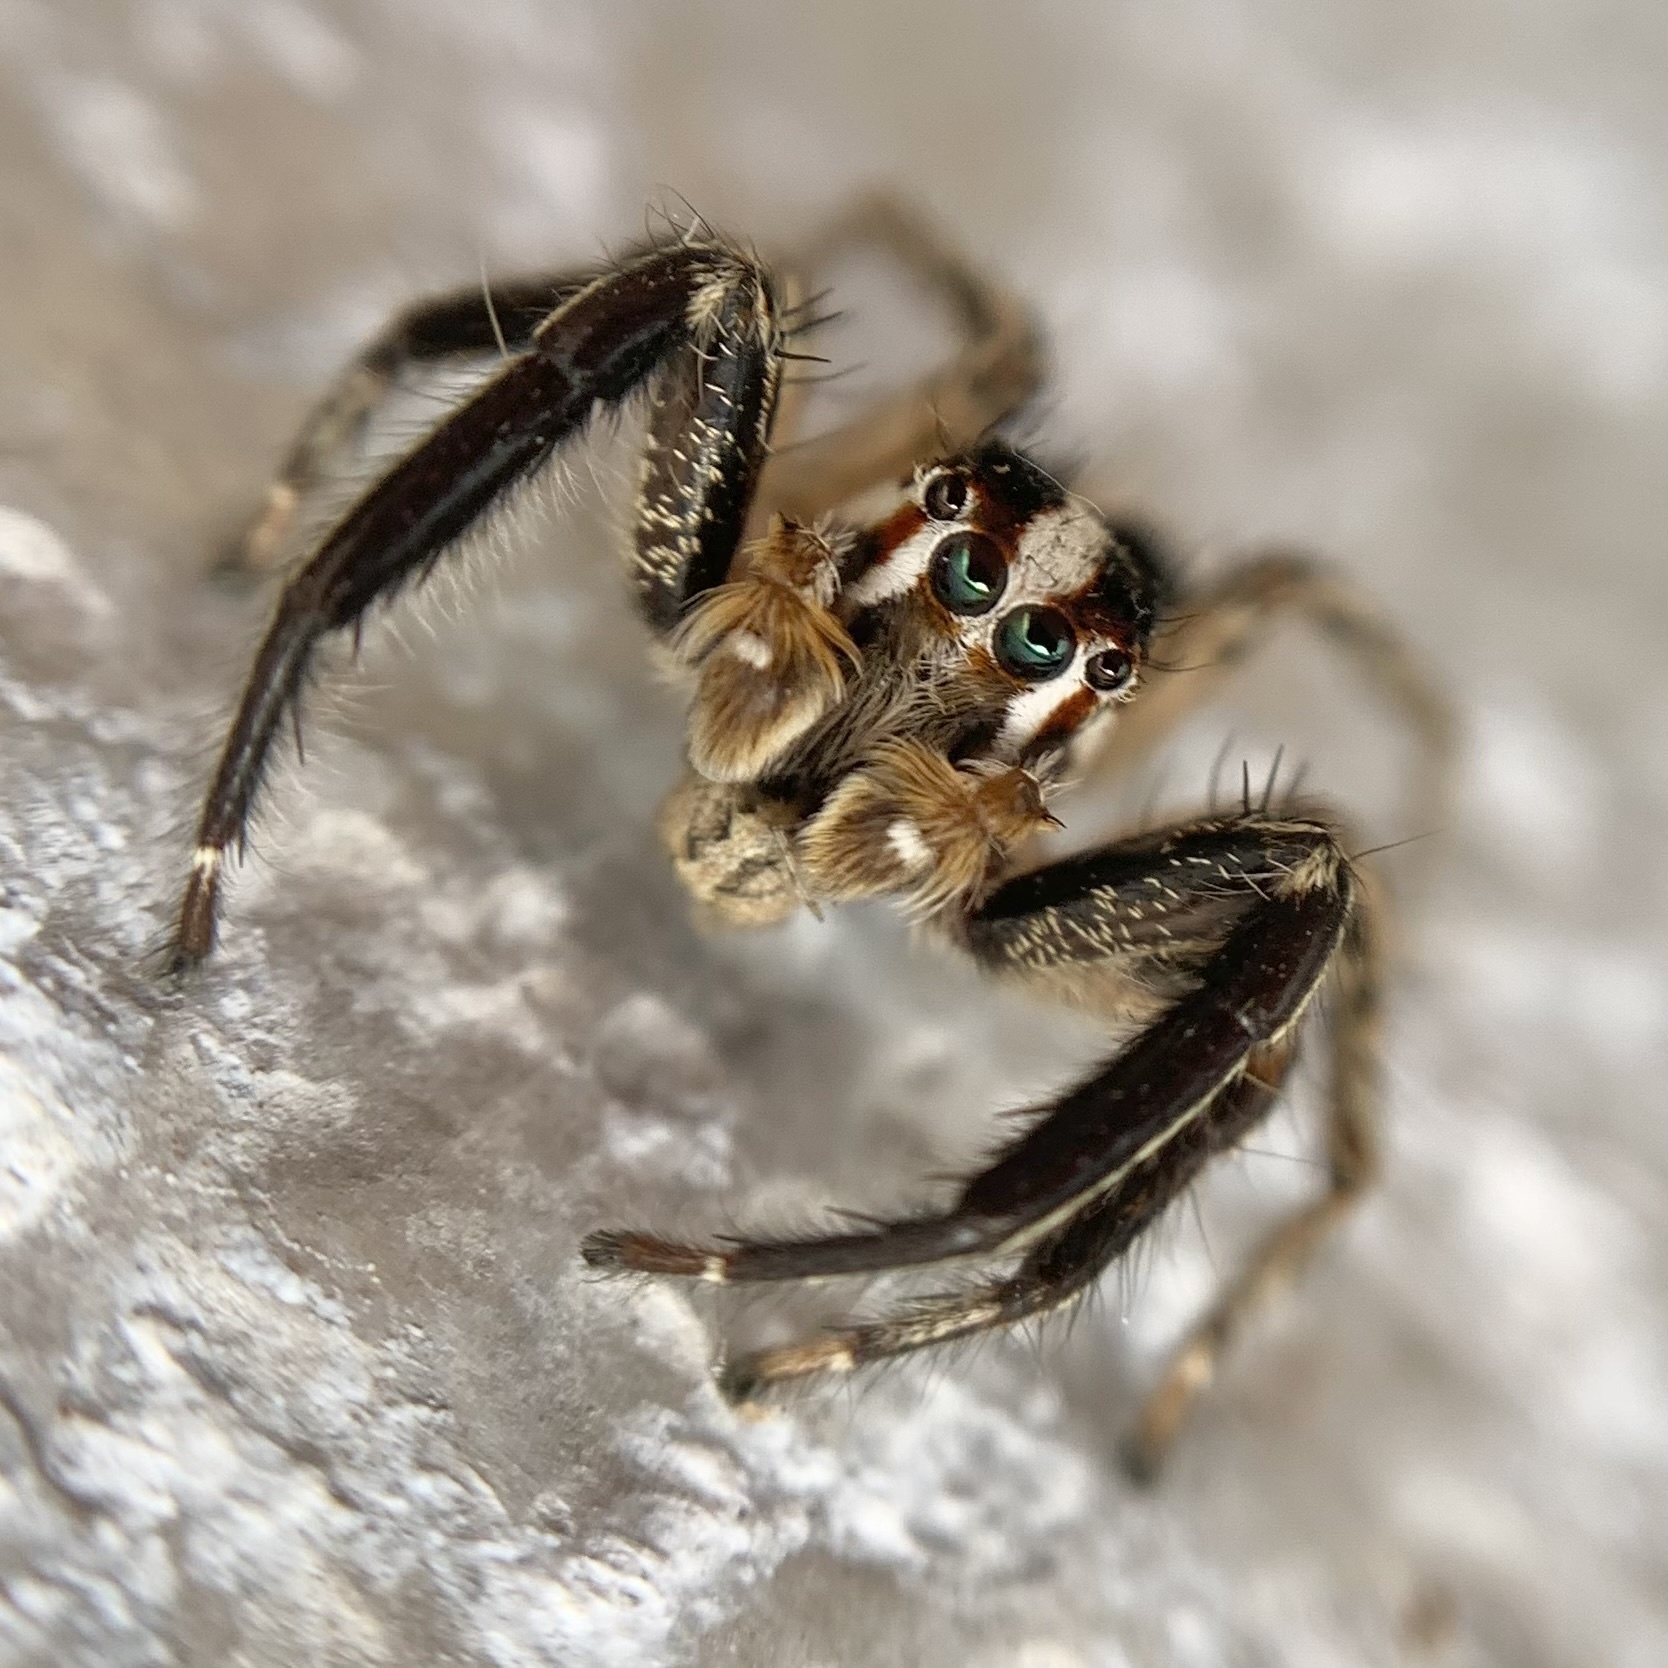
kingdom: Animalia
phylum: Arthropoda
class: Arachnida
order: Araneae
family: Salticidae
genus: Plexippus
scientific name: Plexippus paykulli
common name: Pantropical jumper
